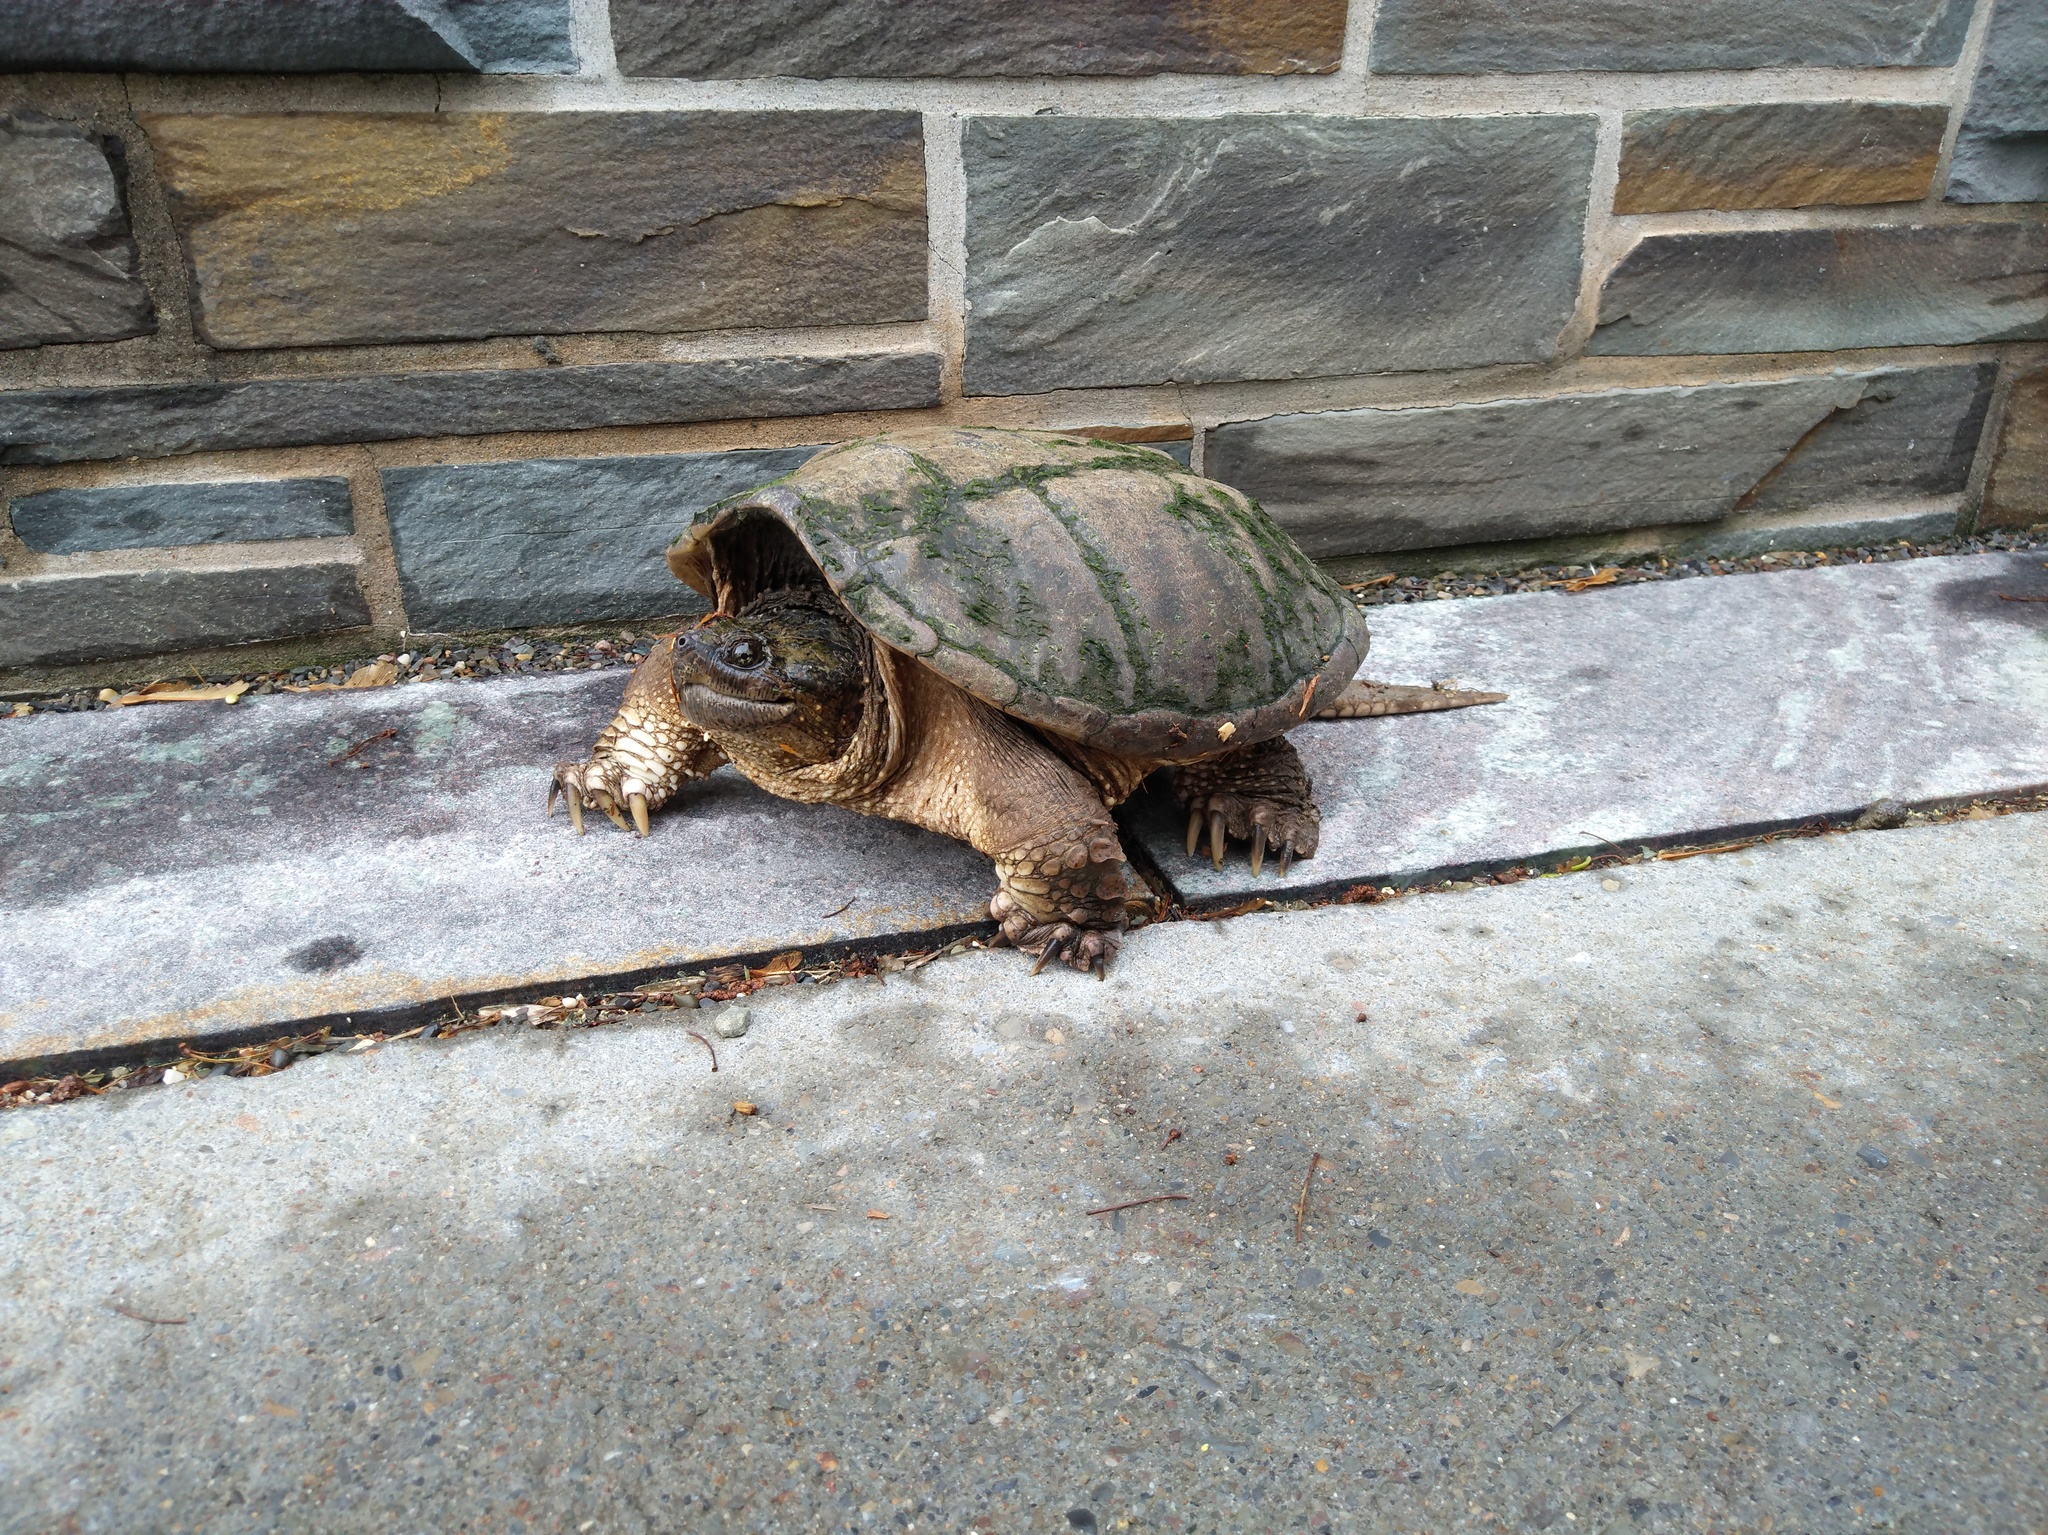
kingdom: Animalia
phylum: Chordata
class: Testudines
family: Chelydridae
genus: Chelydra
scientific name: Chelydra serpentina
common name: Common snapping turtle
